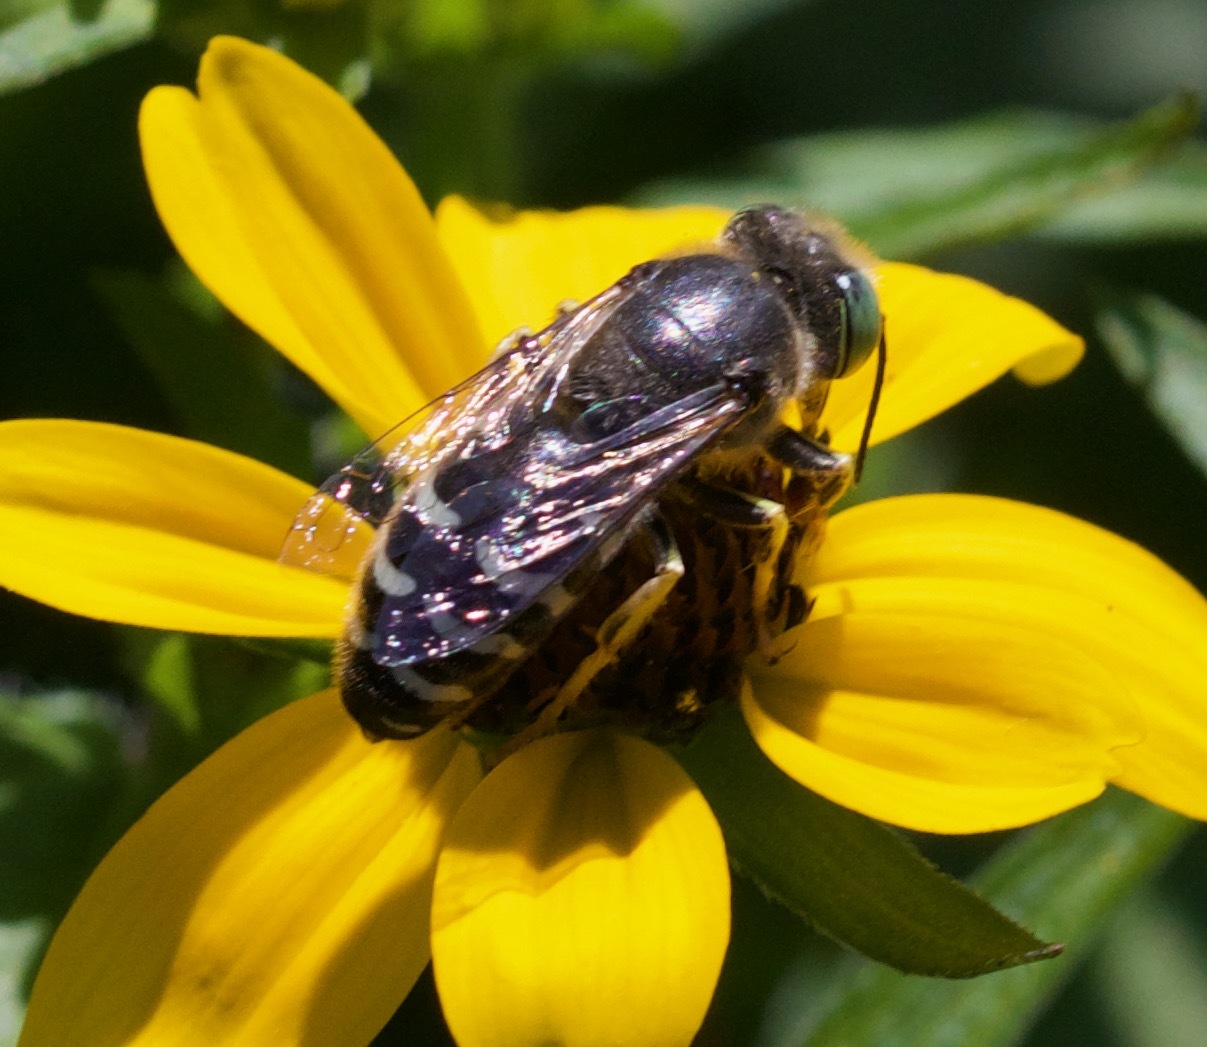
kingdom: Animalia
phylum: Arthropoda
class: Insecta
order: Hymenoptera
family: Crabronidae
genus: Bembix
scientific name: Bembix americana
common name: American sand wasp
